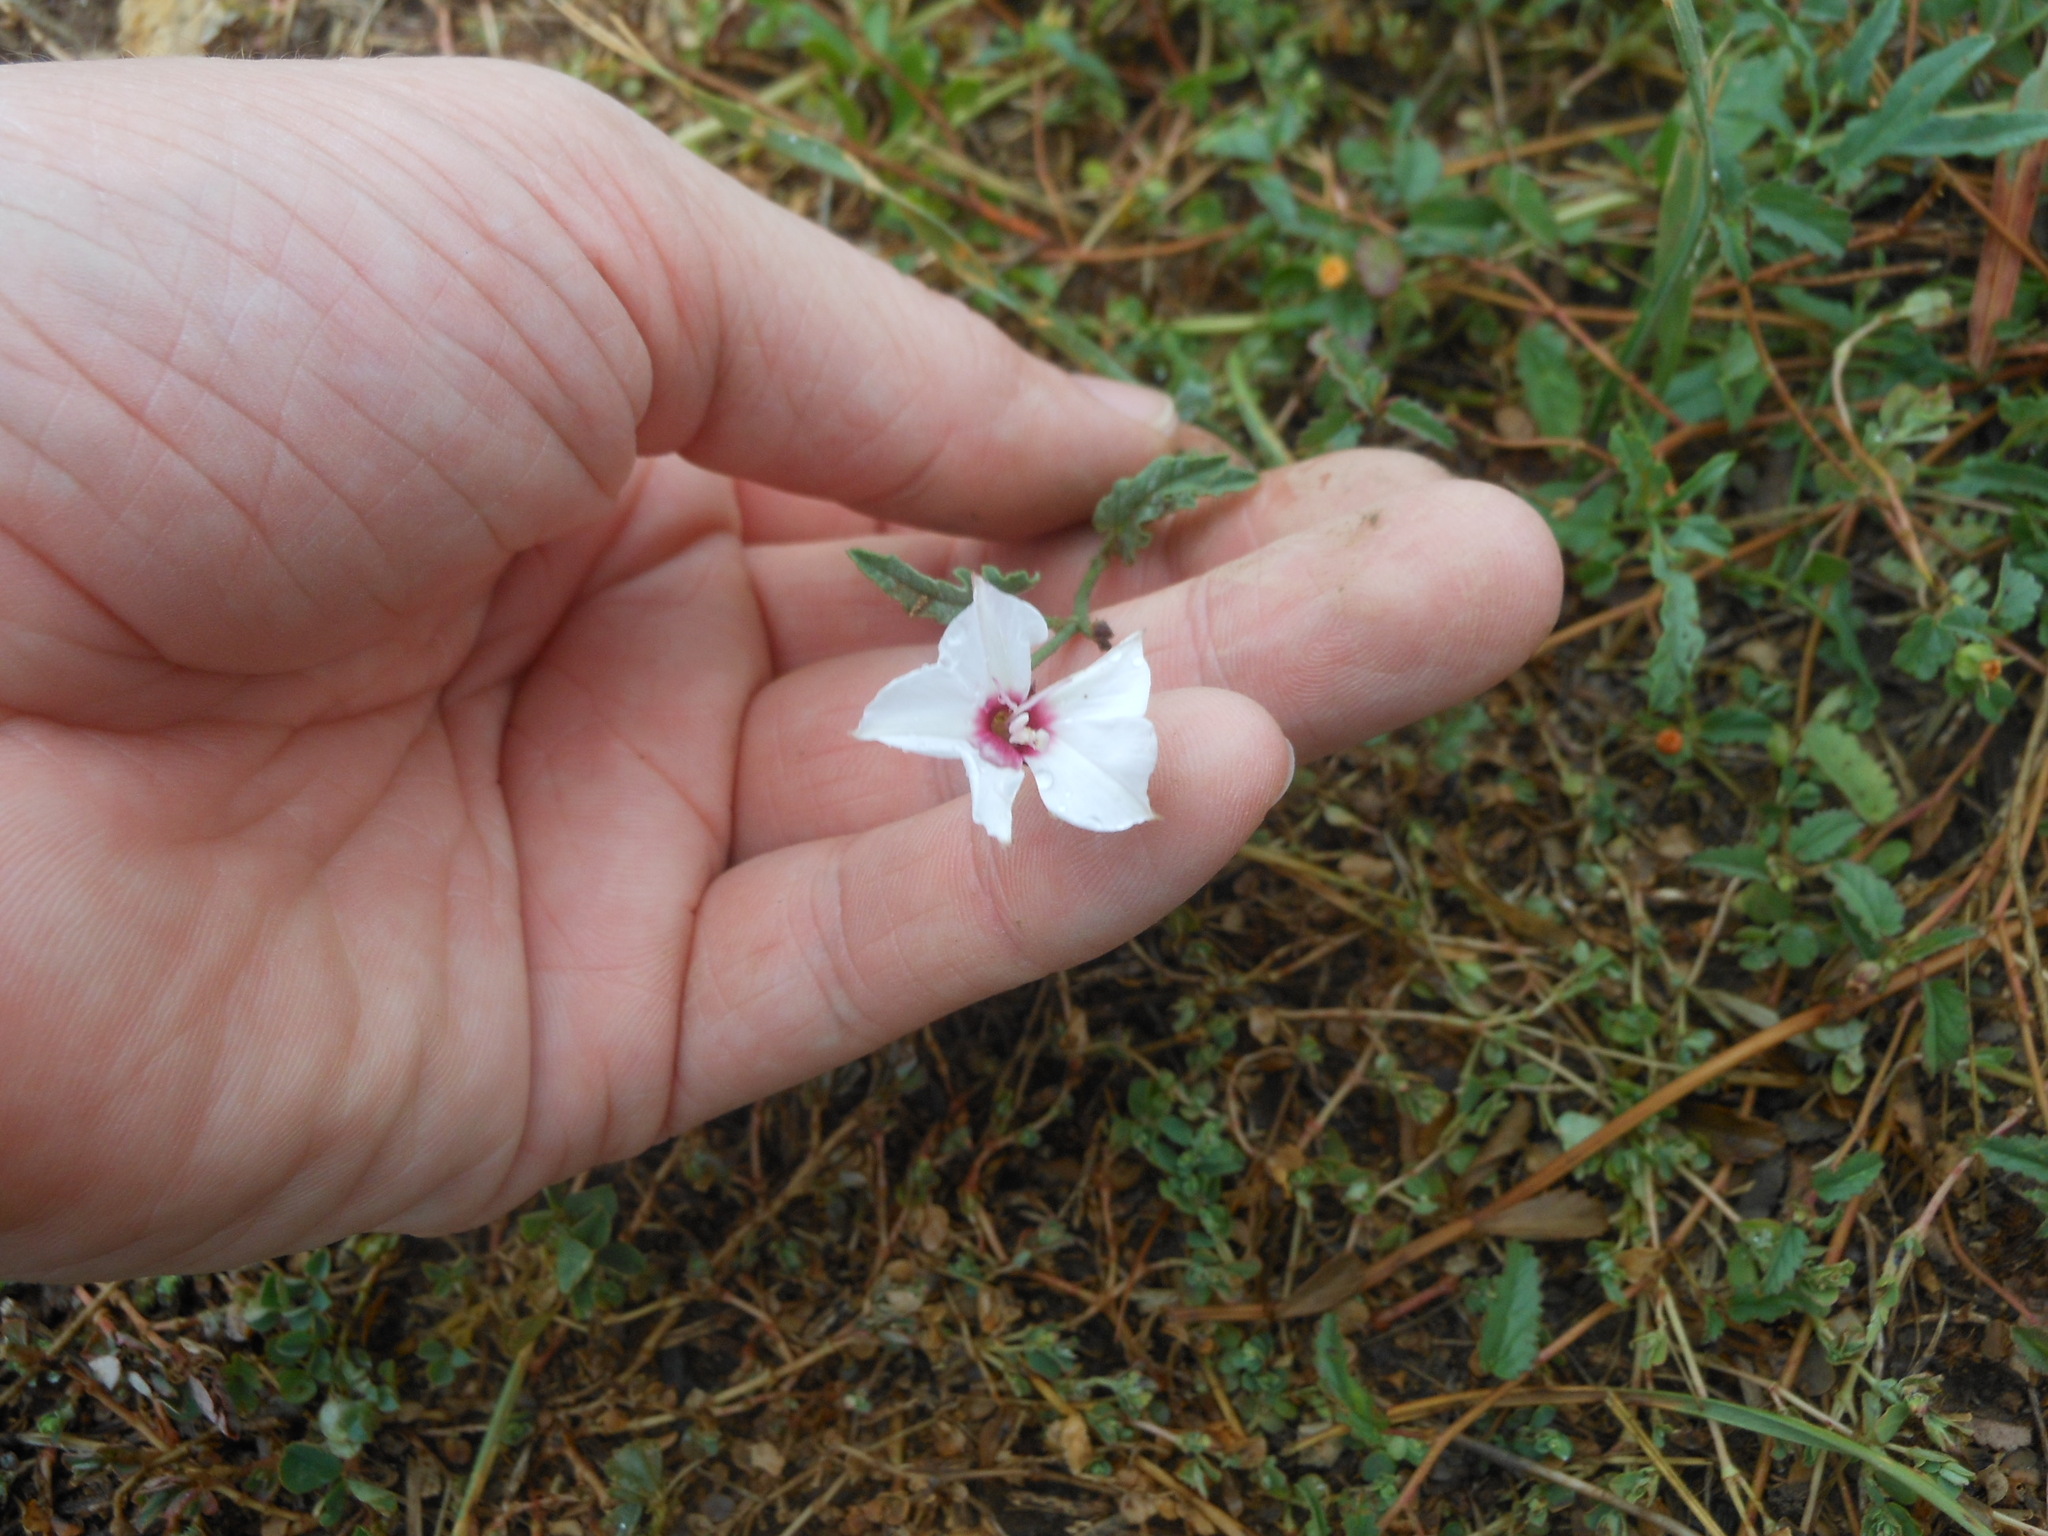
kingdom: Plantae
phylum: Tracheophyta
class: Magnoliopsida
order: Solanales
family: Convolvulaceae
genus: Convolvulus
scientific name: Convolvulus equitans
